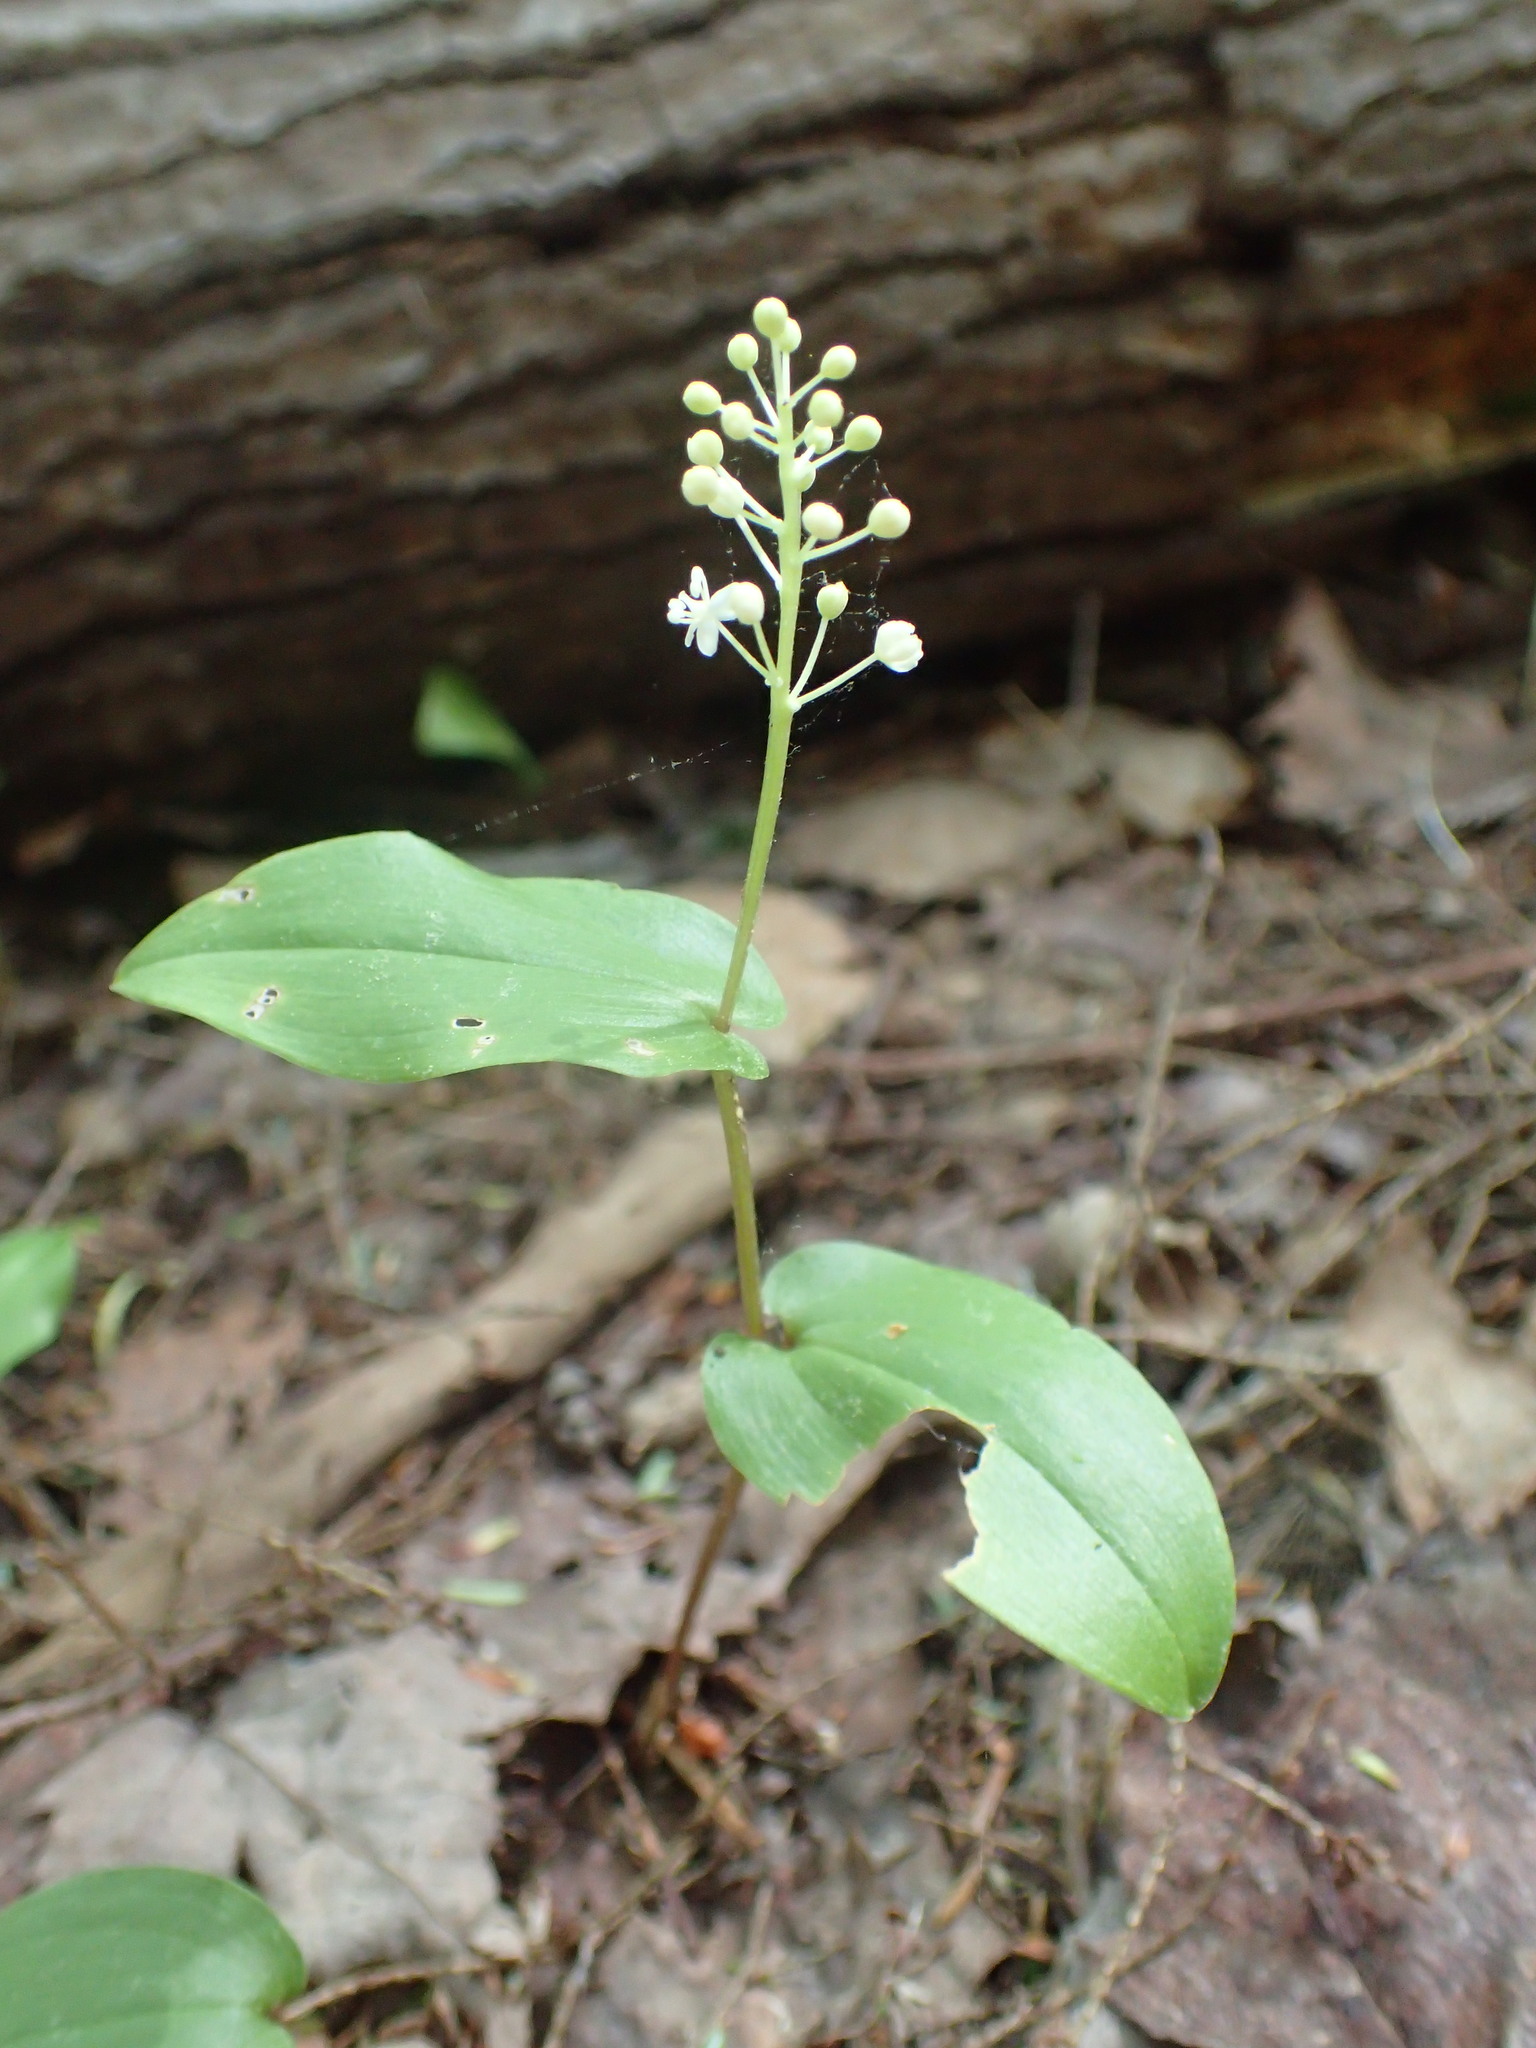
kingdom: Plantae
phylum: Tracheophyta
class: Liliopsida
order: Asparagales
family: Asparagaceae
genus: Maianthemum
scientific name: Maianthemum canadense
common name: False lily-of-the-valley
